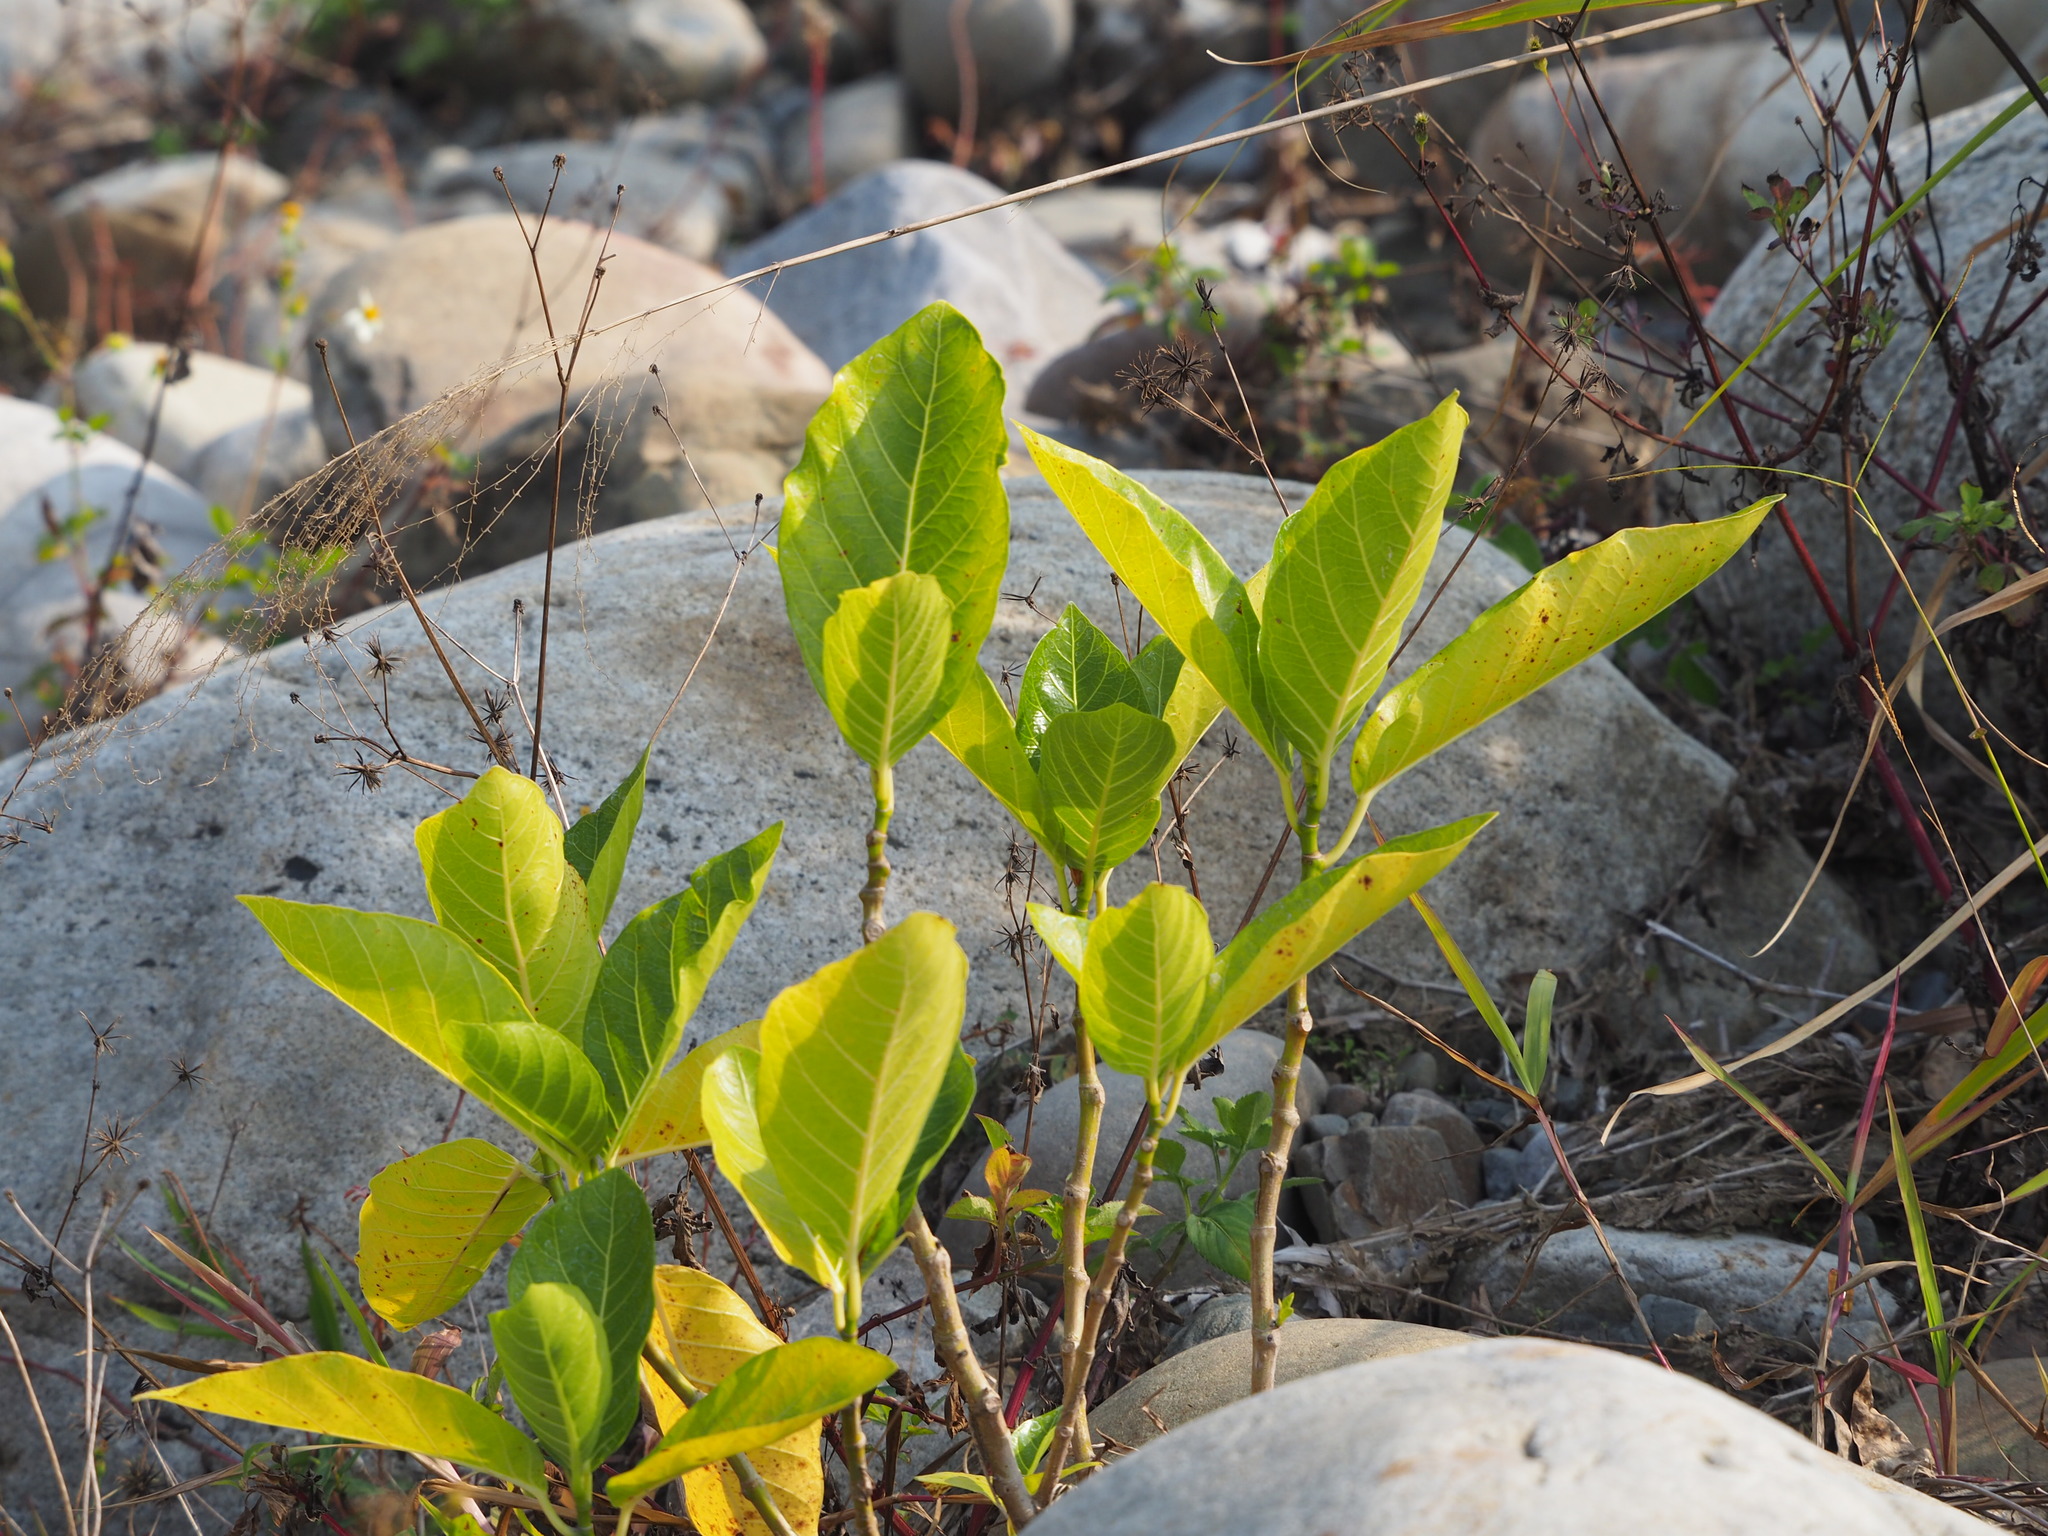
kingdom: Plantae
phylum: Tracheophyta
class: Magnoliopsida
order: Rosales
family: Moraceae
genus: Ficus
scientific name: Ficus septica
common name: Septic fig
